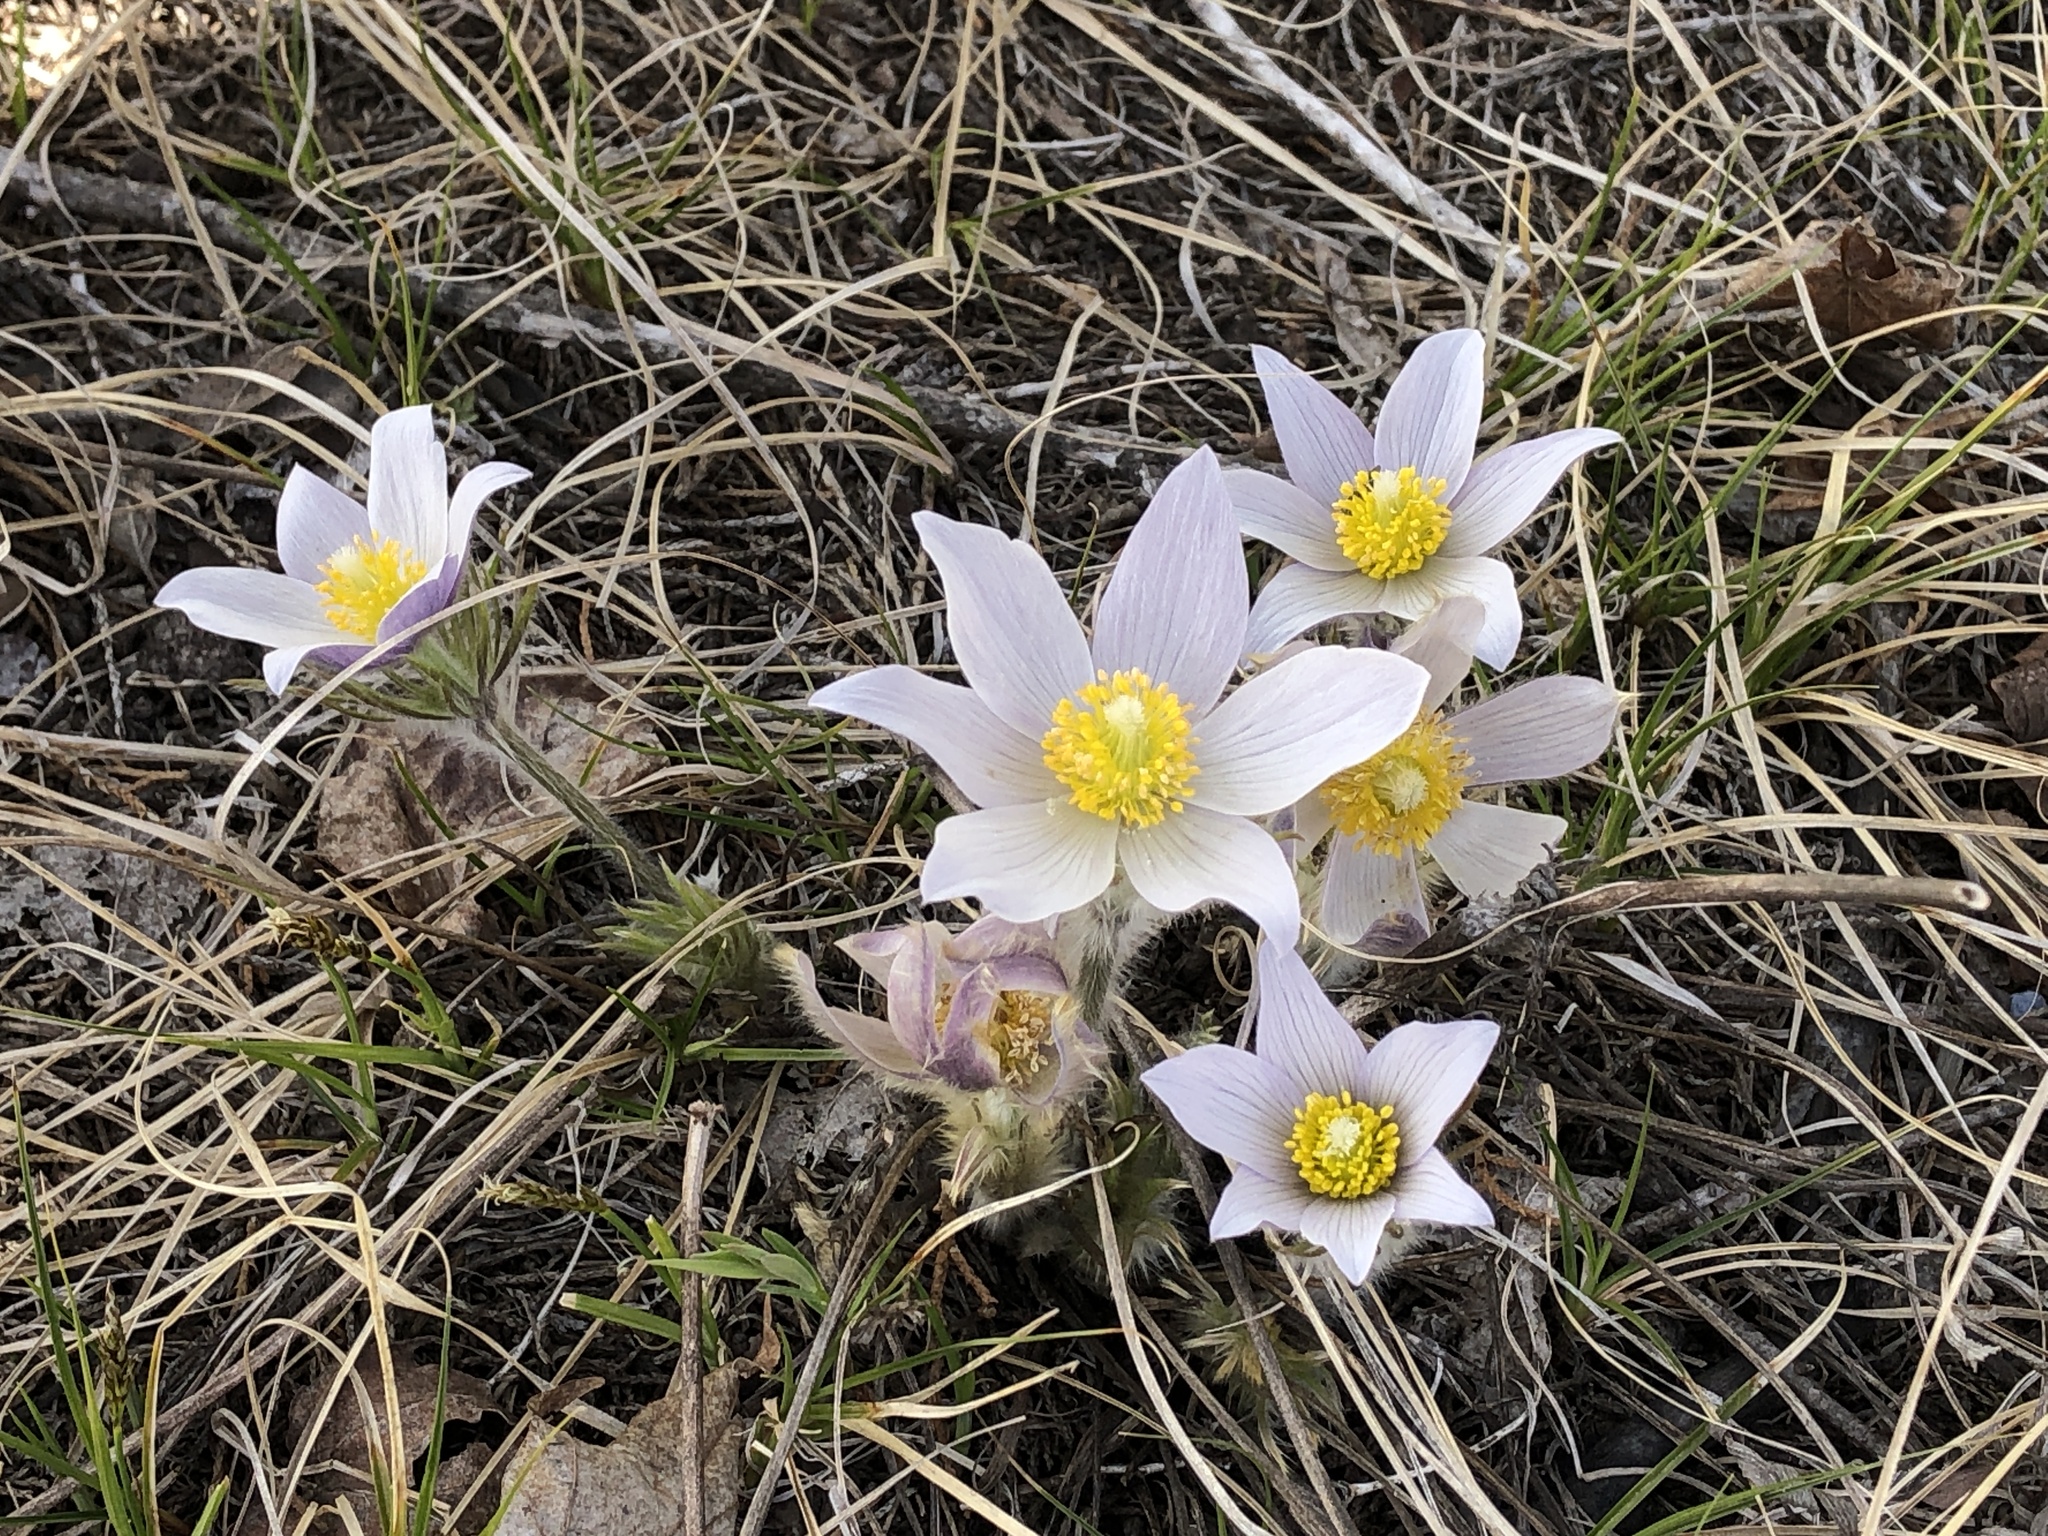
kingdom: Plantae
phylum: Tracheophyta
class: Magnoliopsida
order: Ranunculales
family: Ranunculaceae
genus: Pulsatilla
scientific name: Pulsatilla nuttalliana
